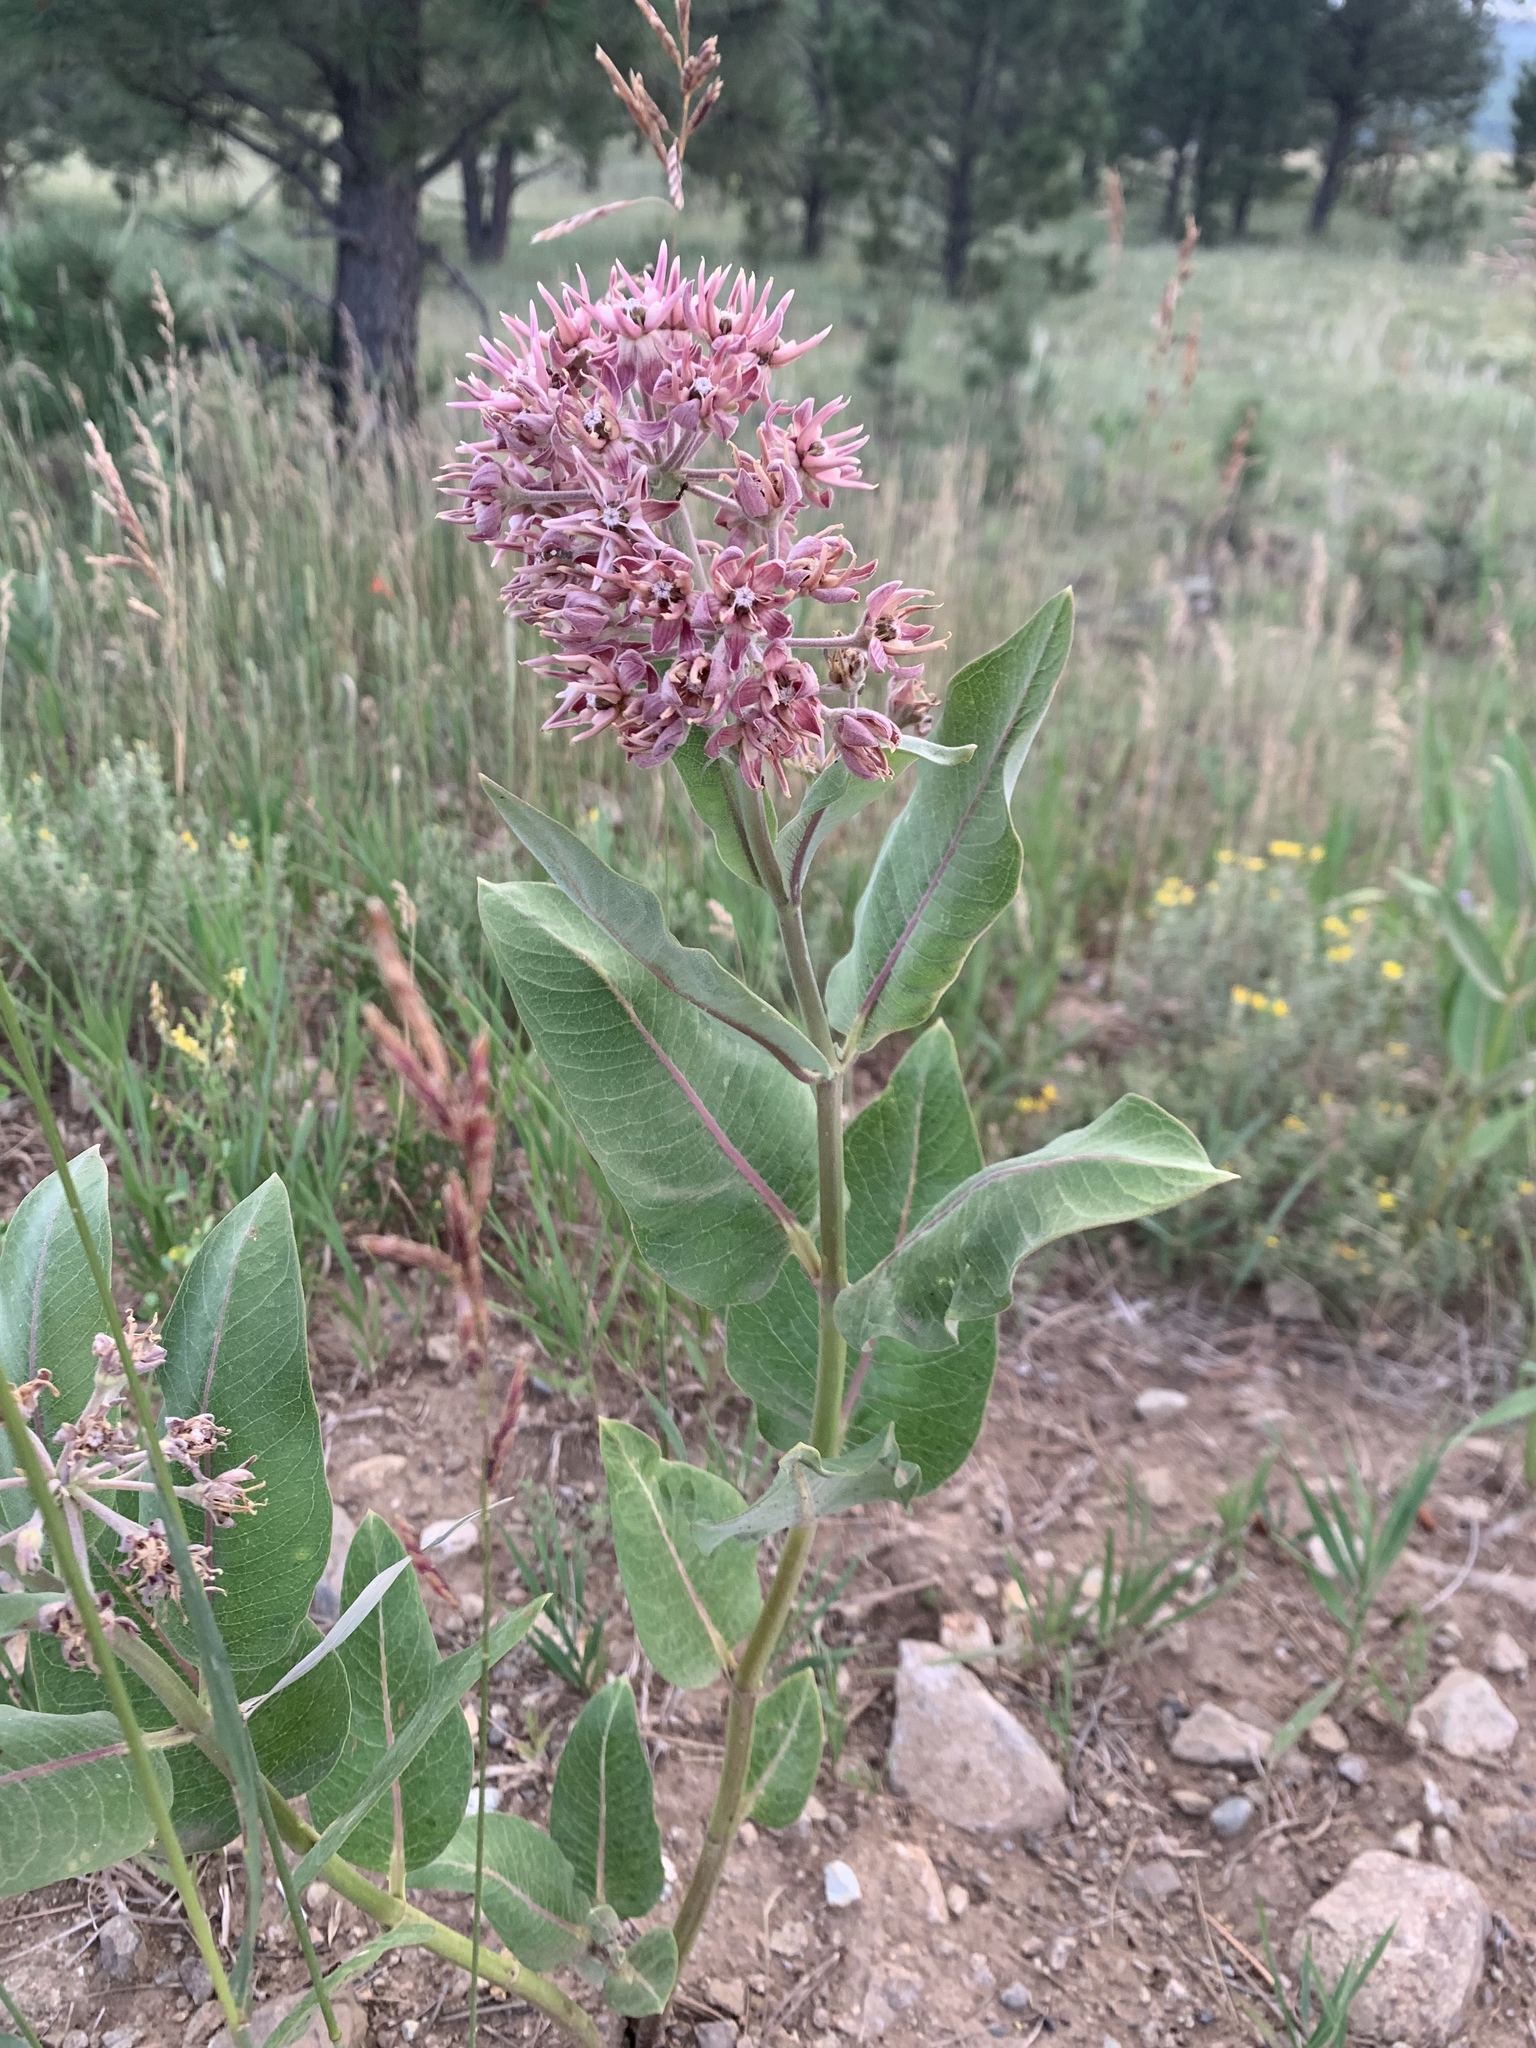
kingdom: Plantae
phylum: Tracheophyta
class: Magnoliopsida
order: Gentianales
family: Apocynaceae
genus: Asclepias
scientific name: Asclepias speciosa
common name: Showy milkweed
